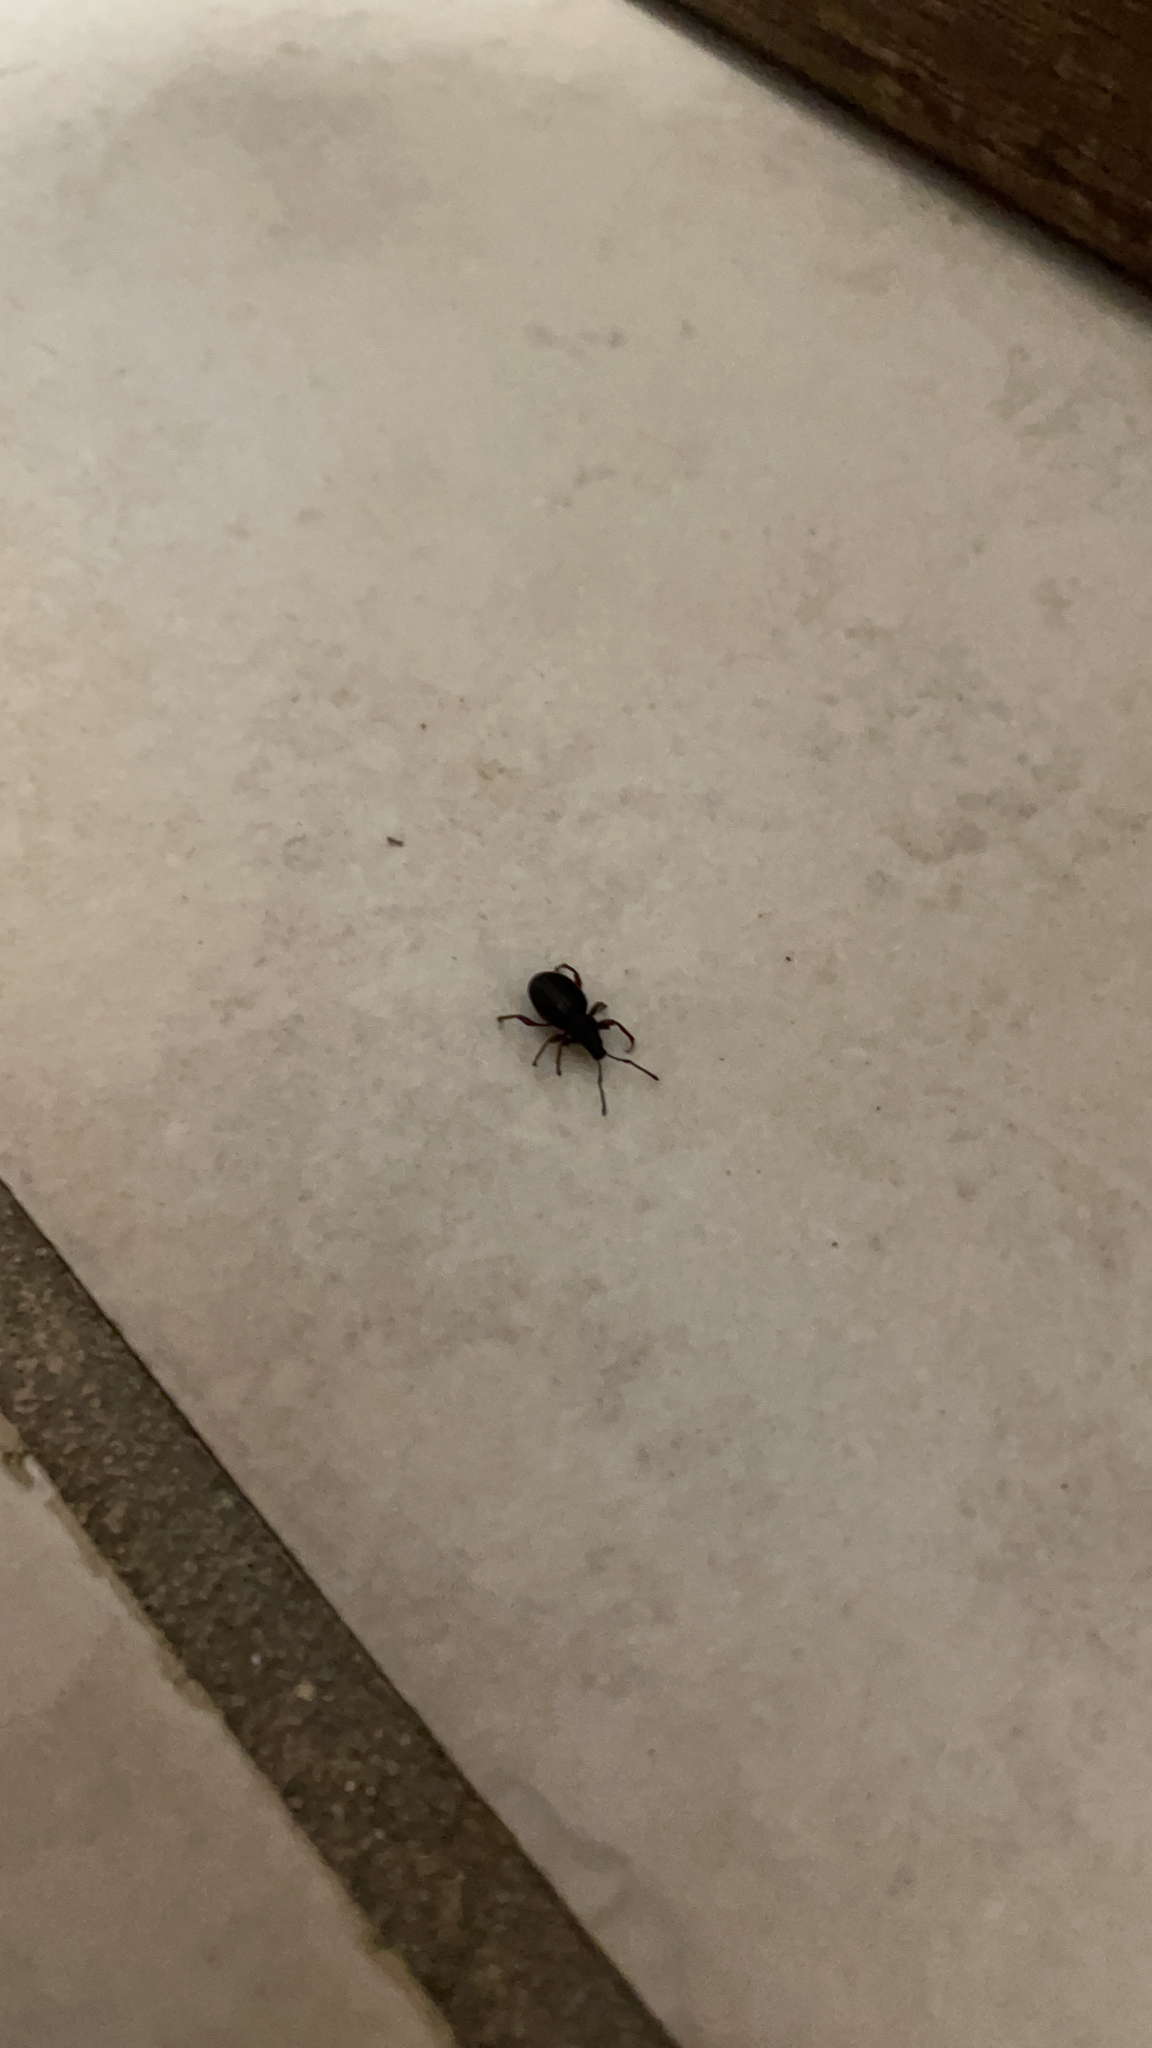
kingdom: Animalia
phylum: Arthropoda
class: Insecta
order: Coleoptera
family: Curculionidae
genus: Otiorhynchus
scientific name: Otiorhynchus ovatus
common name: Strawberry root weevil
